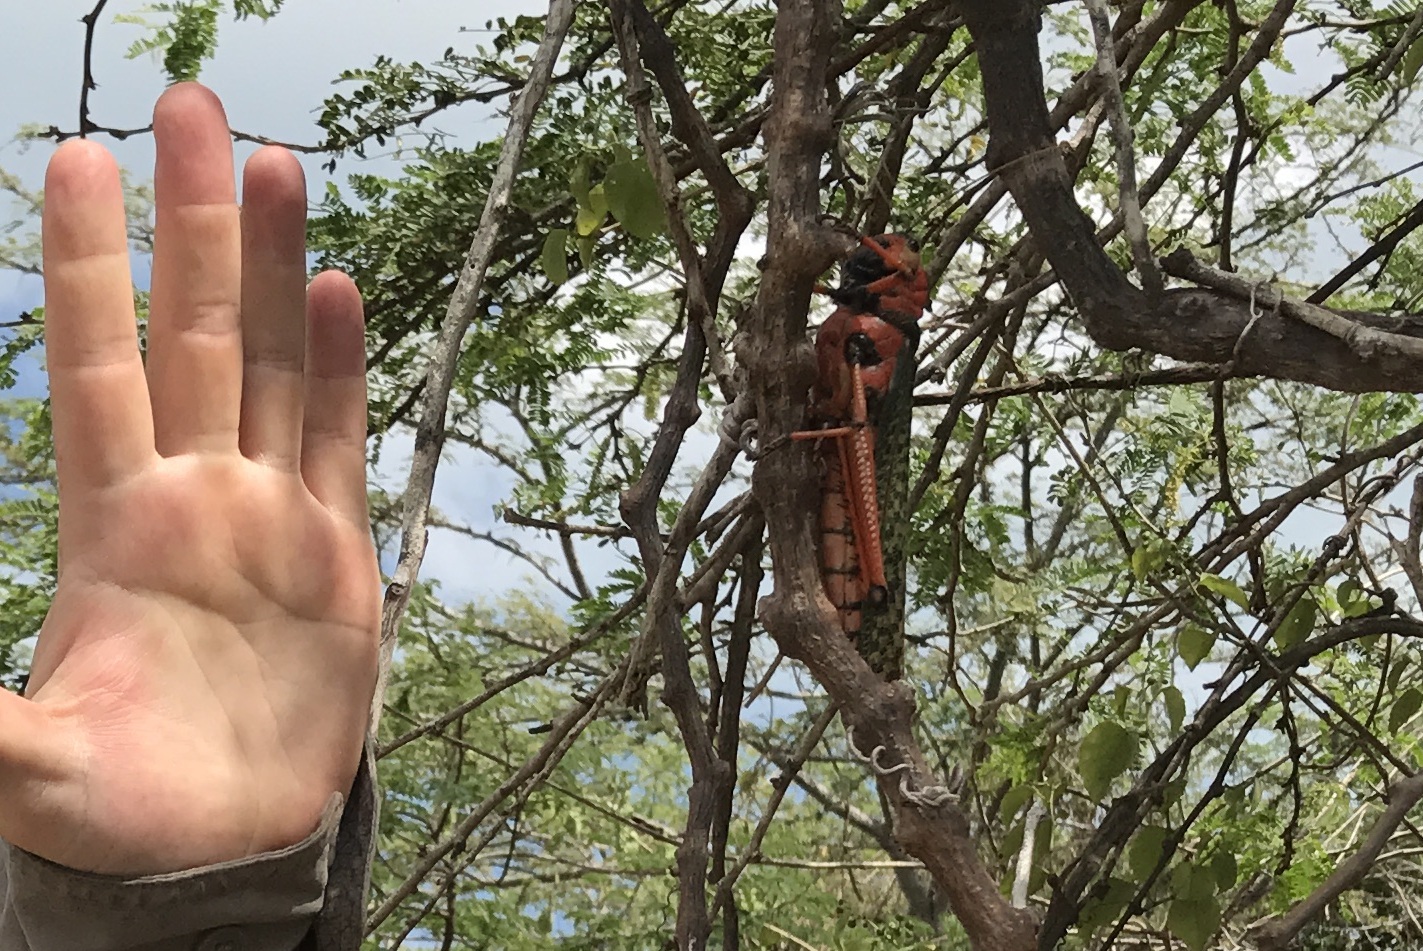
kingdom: Animalia
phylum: Arthropoda
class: Insecta
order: Orthoptera
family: Romaleidae
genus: Tropidacris
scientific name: Tropidacris collaris
